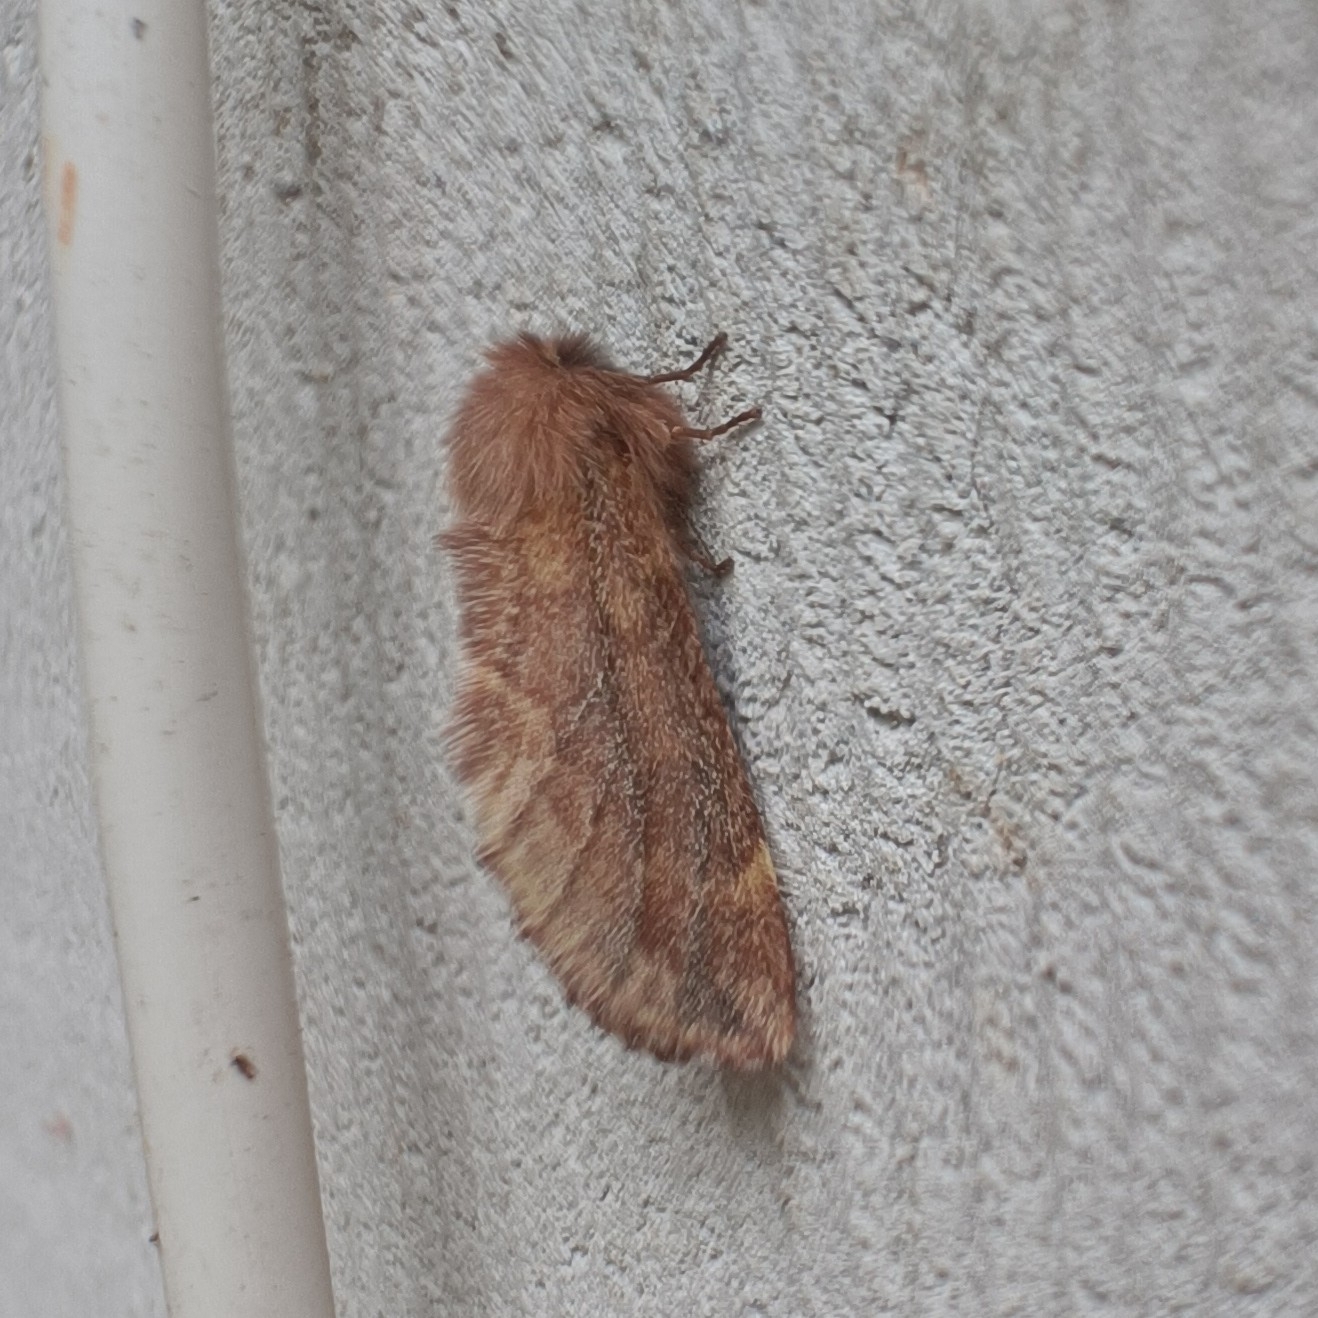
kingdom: Animalia
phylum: Arthropoda
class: Insecta
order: Lepidoptera
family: Notodontidae
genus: Ptilophora
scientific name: Ptilophora plumigera
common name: Plumed prominent
